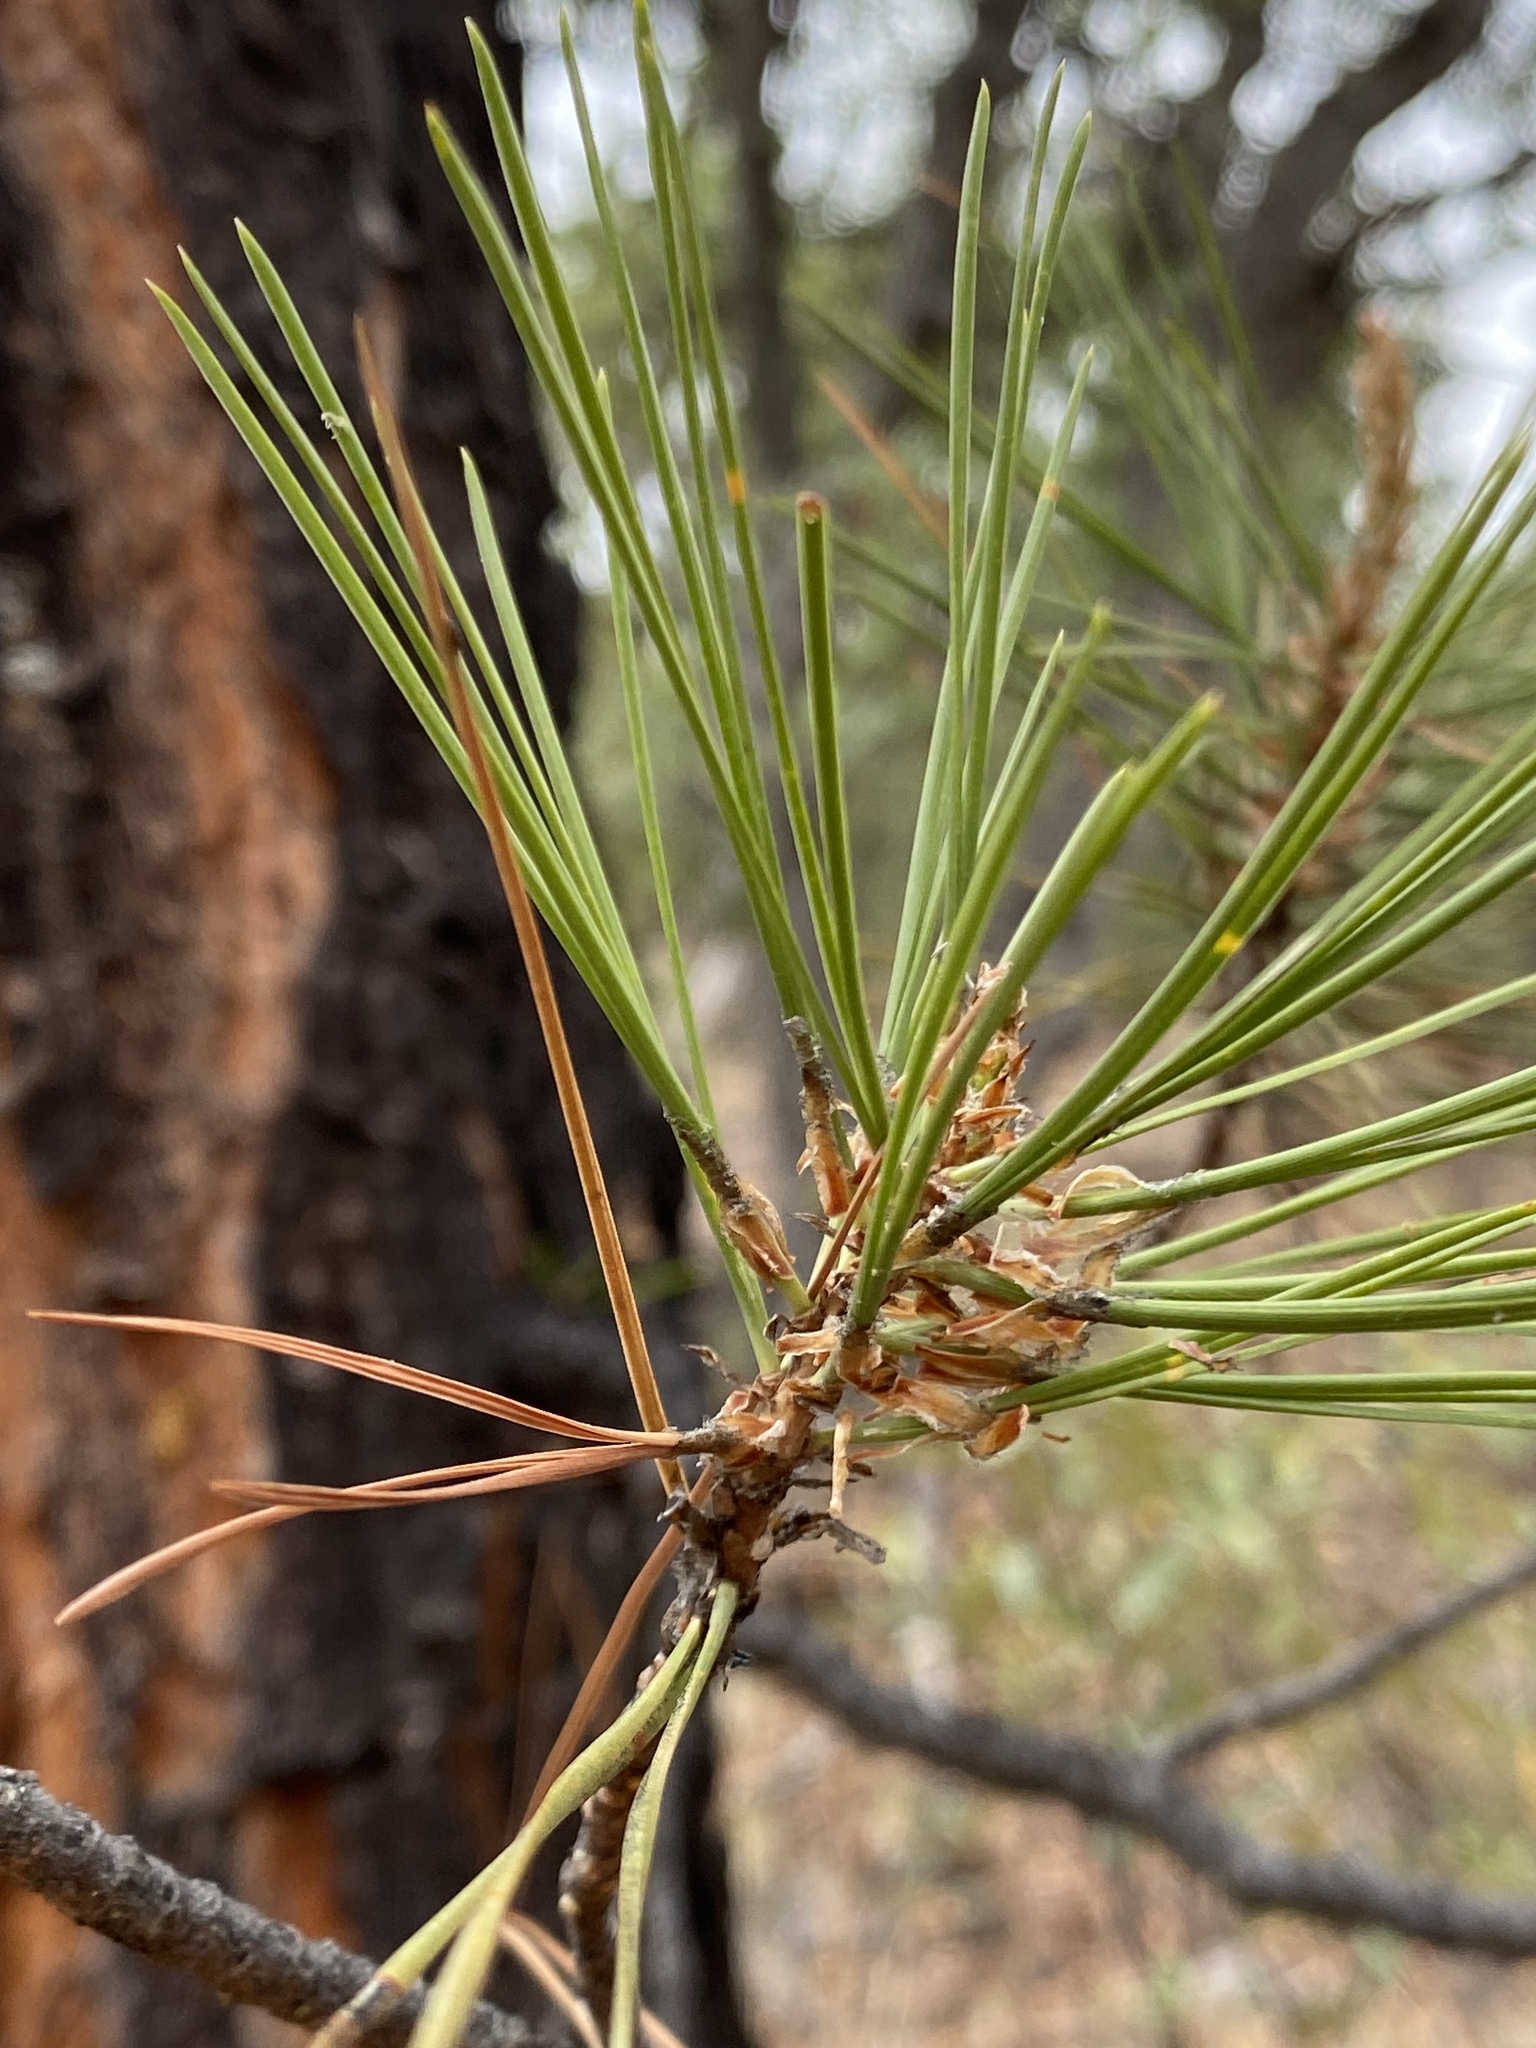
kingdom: Plantae
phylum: Tracheophyta
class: Pinopsida
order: Pinales
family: Pinaceae
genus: Pinus
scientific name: Pinus leiophylla
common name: Chihuahua pine
